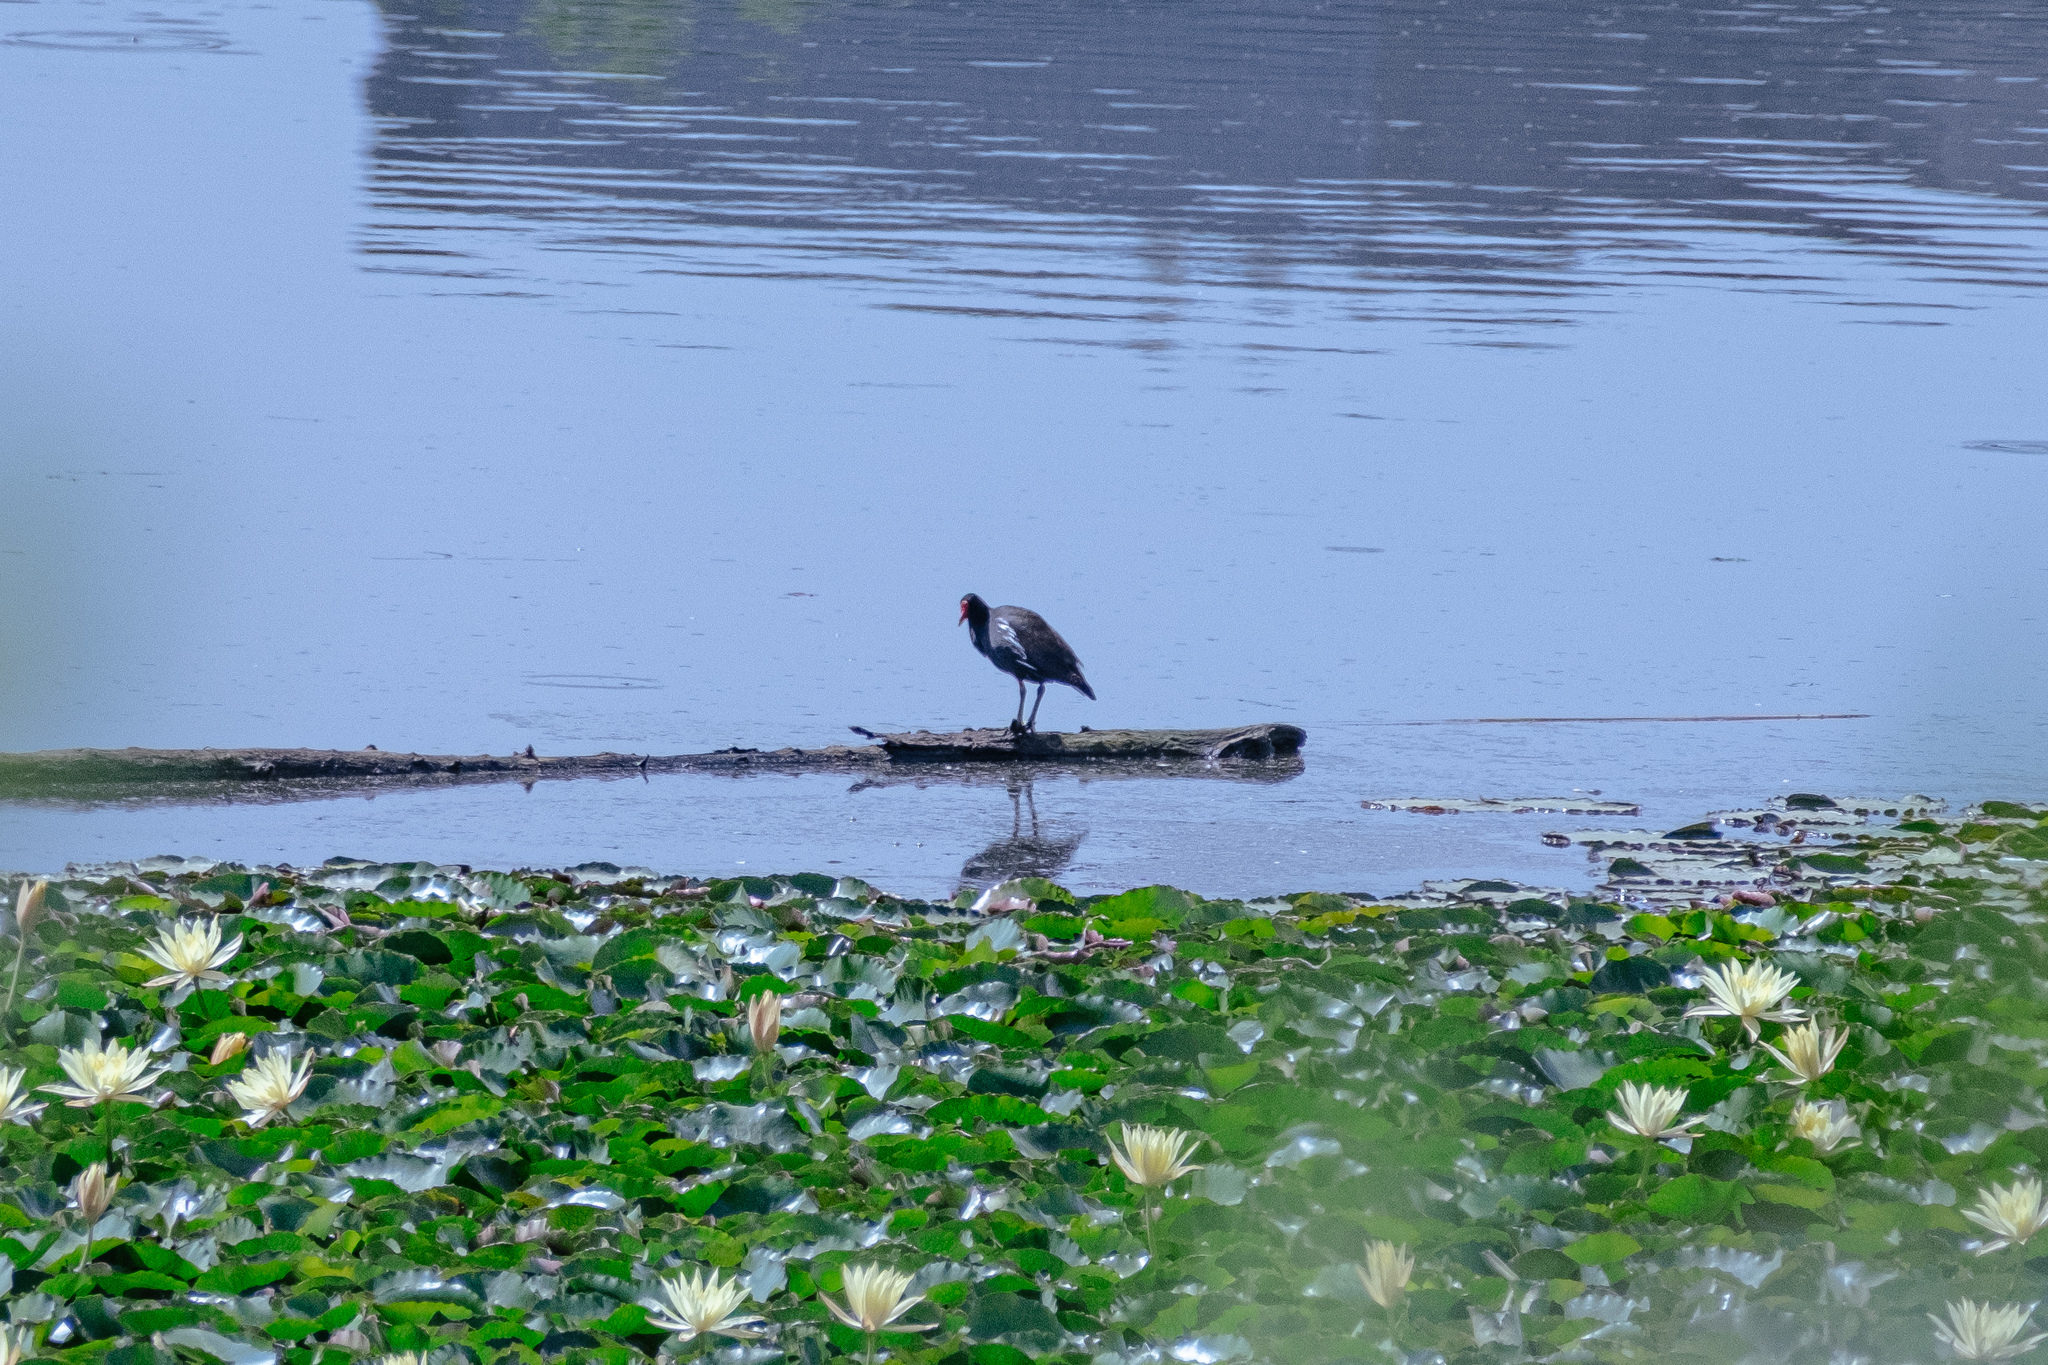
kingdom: Animalia
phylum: Chordata
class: Aves
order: Gruiformes
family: Rallidae
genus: Gallinula
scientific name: Gallinula chloropus
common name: Common moorhen
